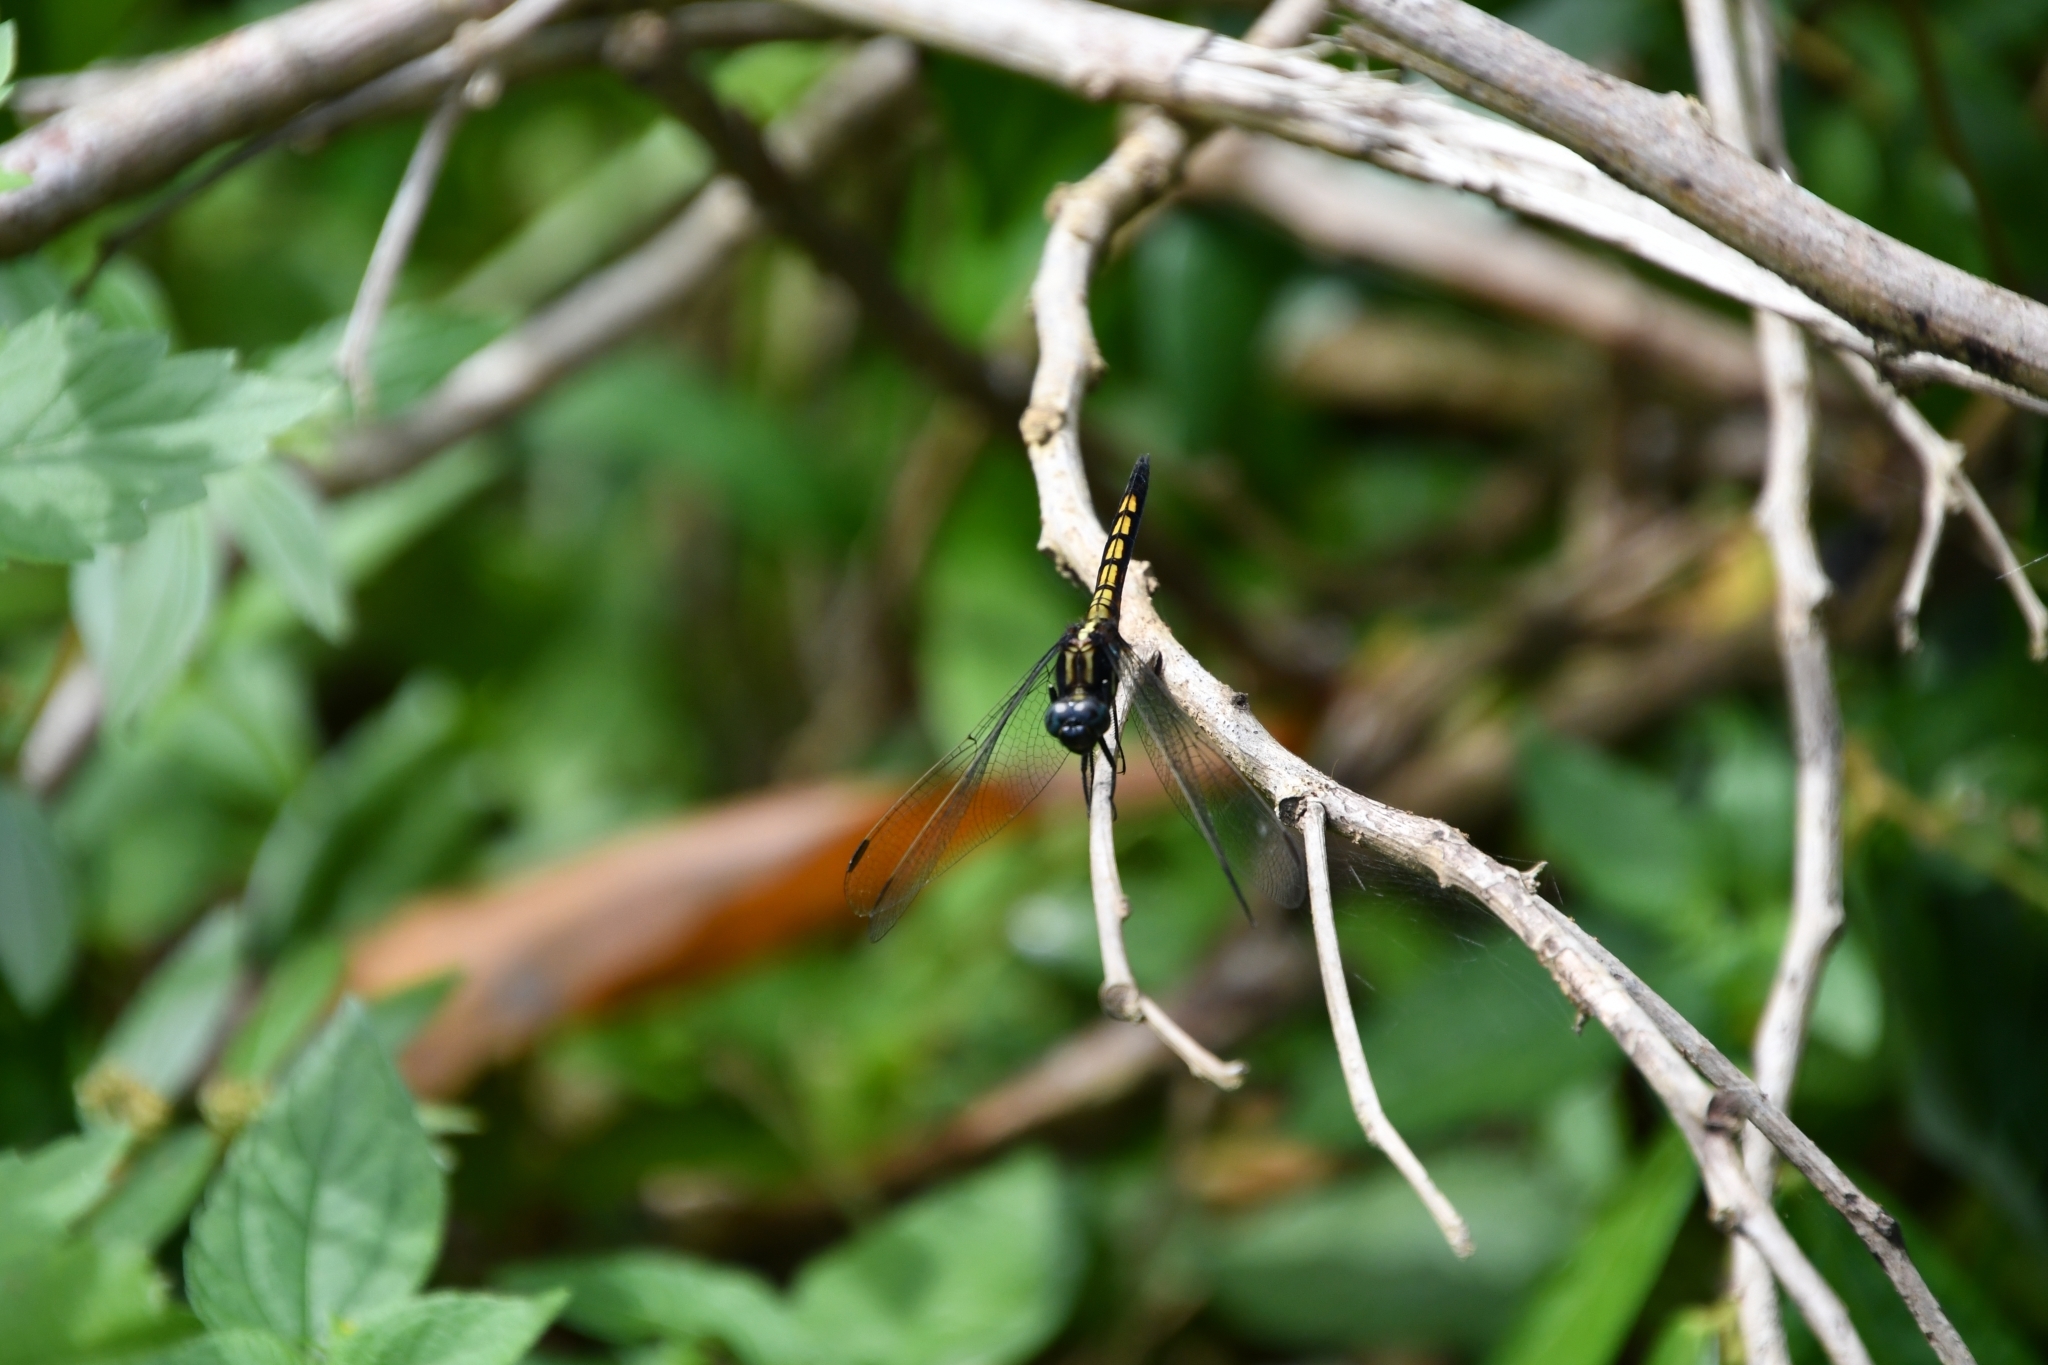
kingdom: Animalia
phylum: Arthropoda
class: Insecta
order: Odonata
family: Libellulidae
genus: Orthetrum
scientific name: Orthetrum glaucum
